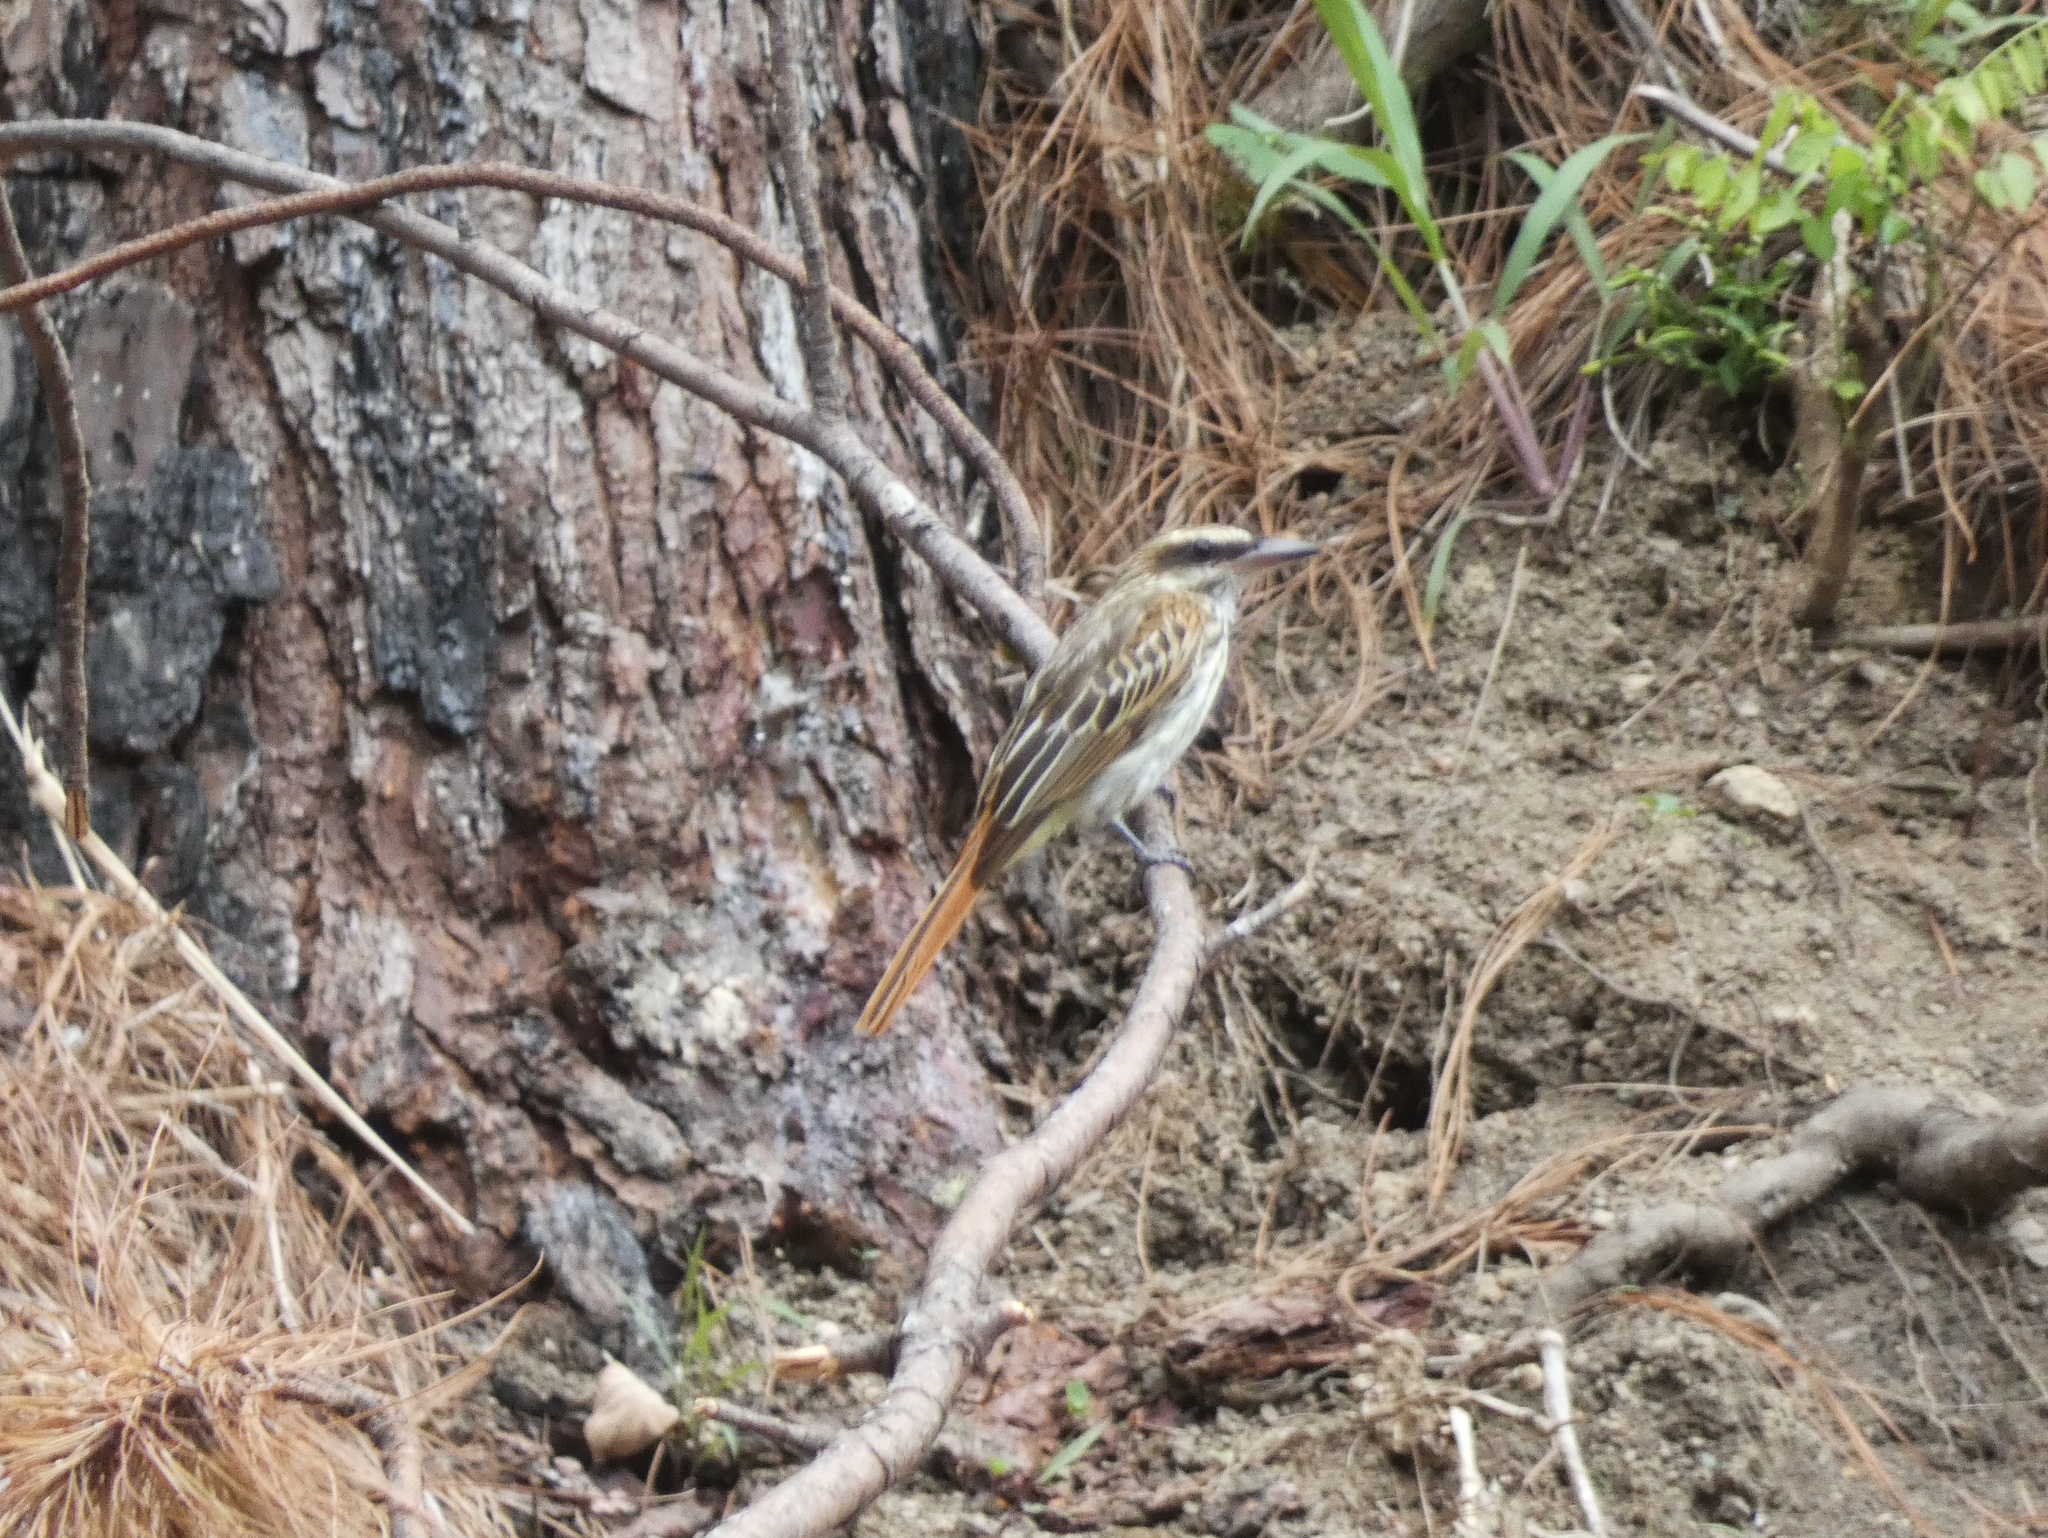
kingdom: Animalia
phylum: Chordata
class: Aves
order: Passeriformes
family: Tyrannidae
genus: Myiodynastes
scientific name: Myiodynastes maculatus
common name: Streaked flycatcher
